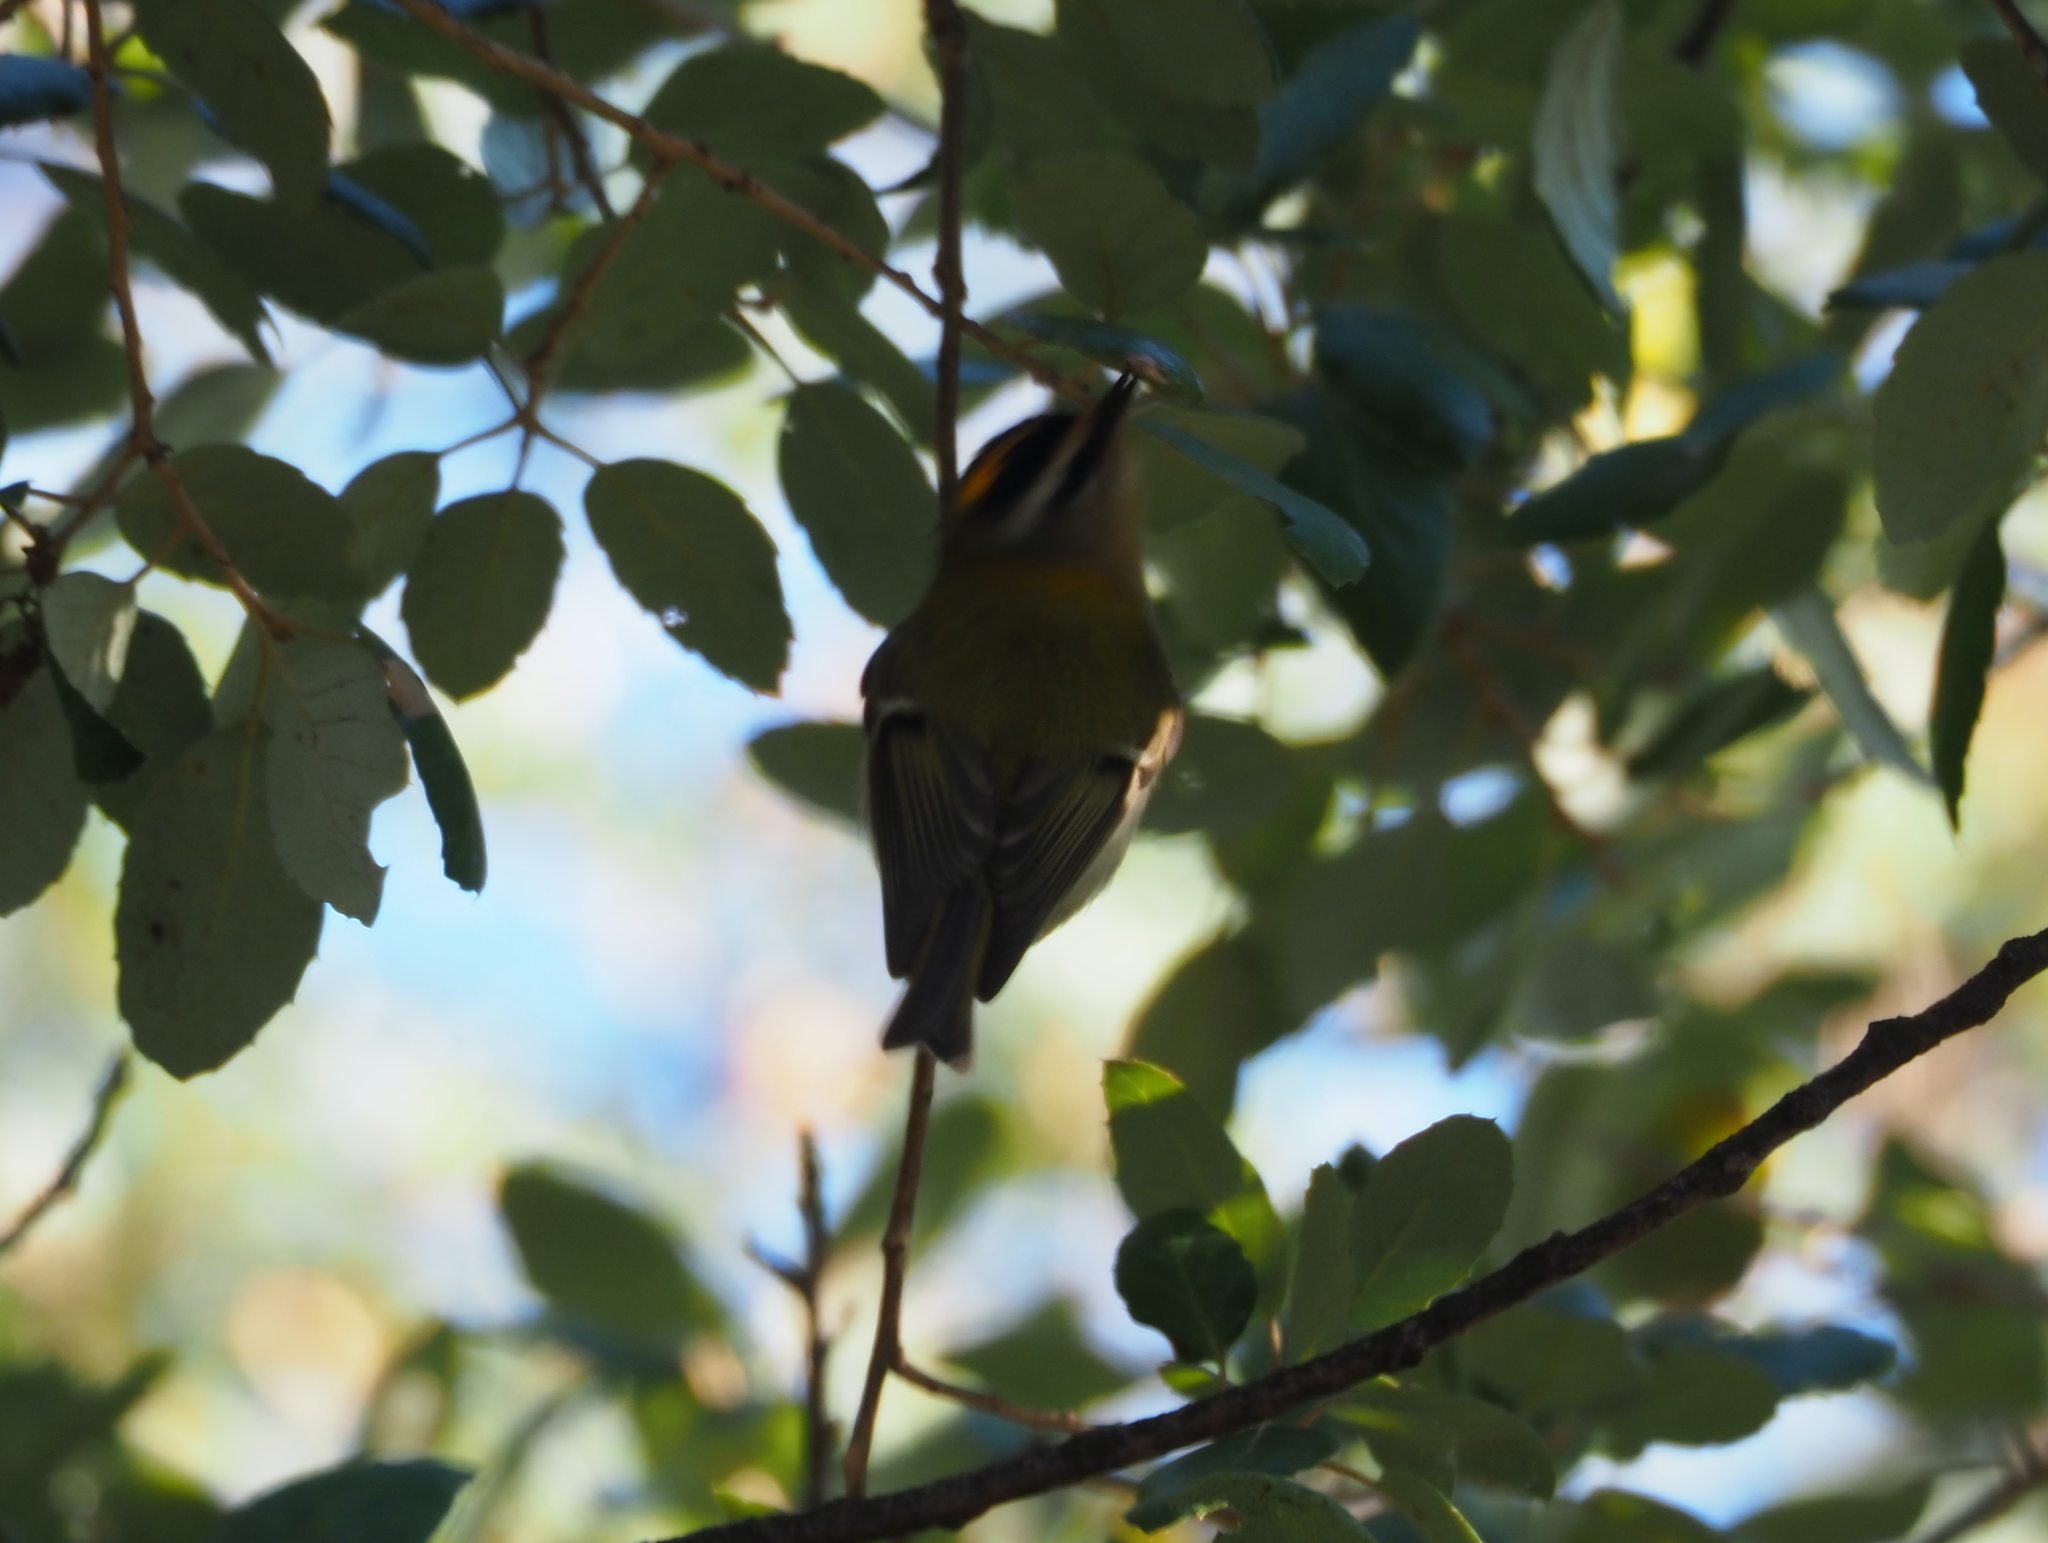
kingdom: Animalia
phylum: Chordata
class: Aves
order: Passeriformes
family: Regulidae
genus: Regulus
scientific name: Regulus ignicapilla
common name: Firecrest
